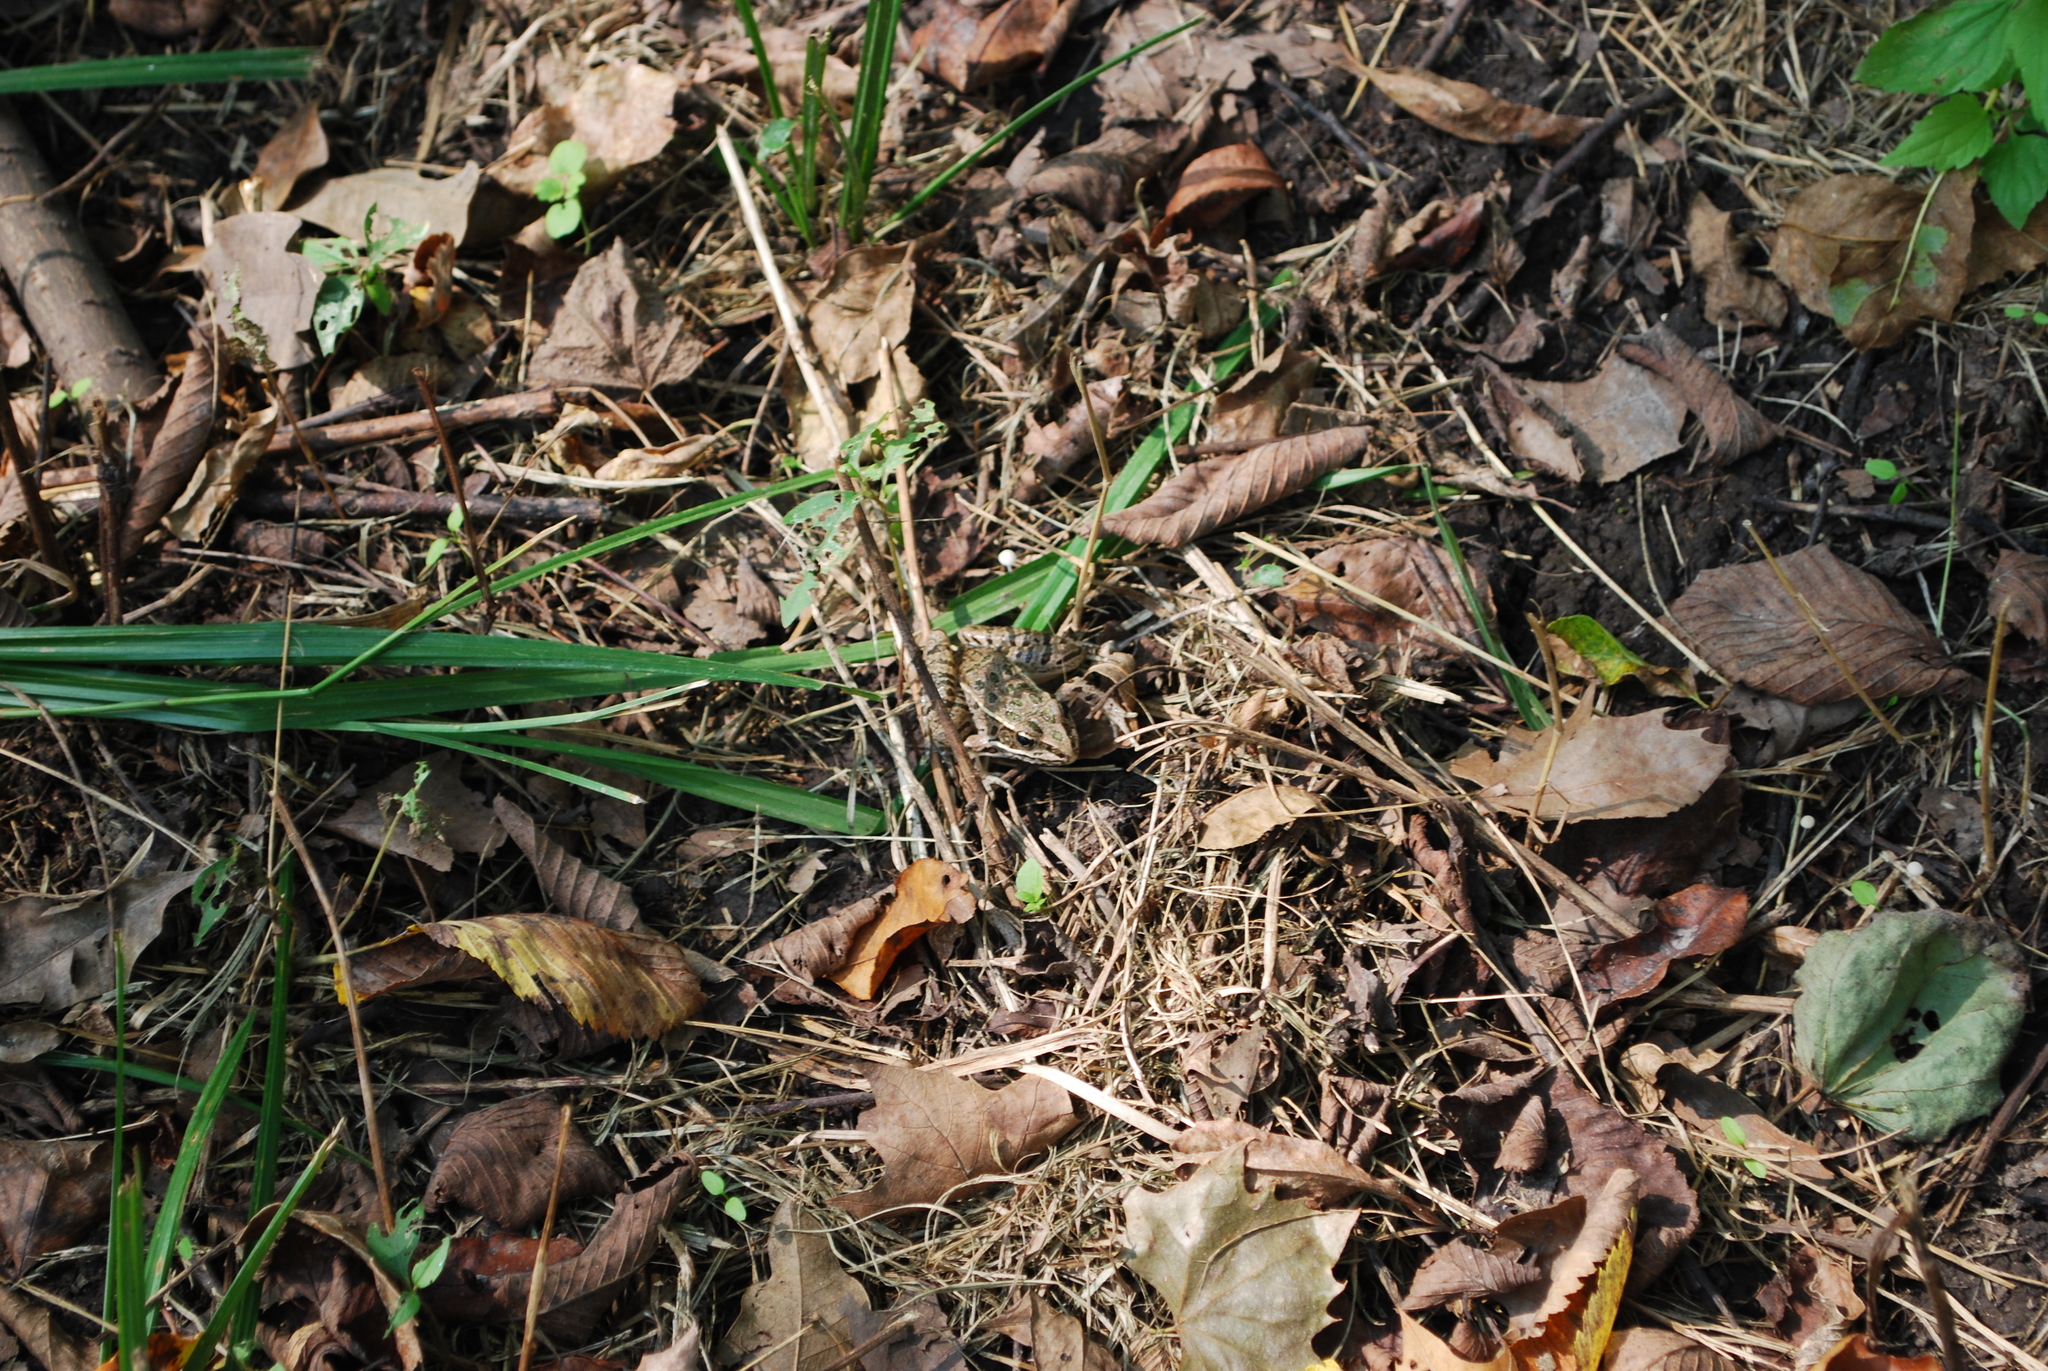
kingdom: Animalia
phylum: Chordata
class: Amphibia
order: Anura
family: Ranidae
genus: Lithobates
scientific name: Lithobates blairi
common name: Plains leopard frog
